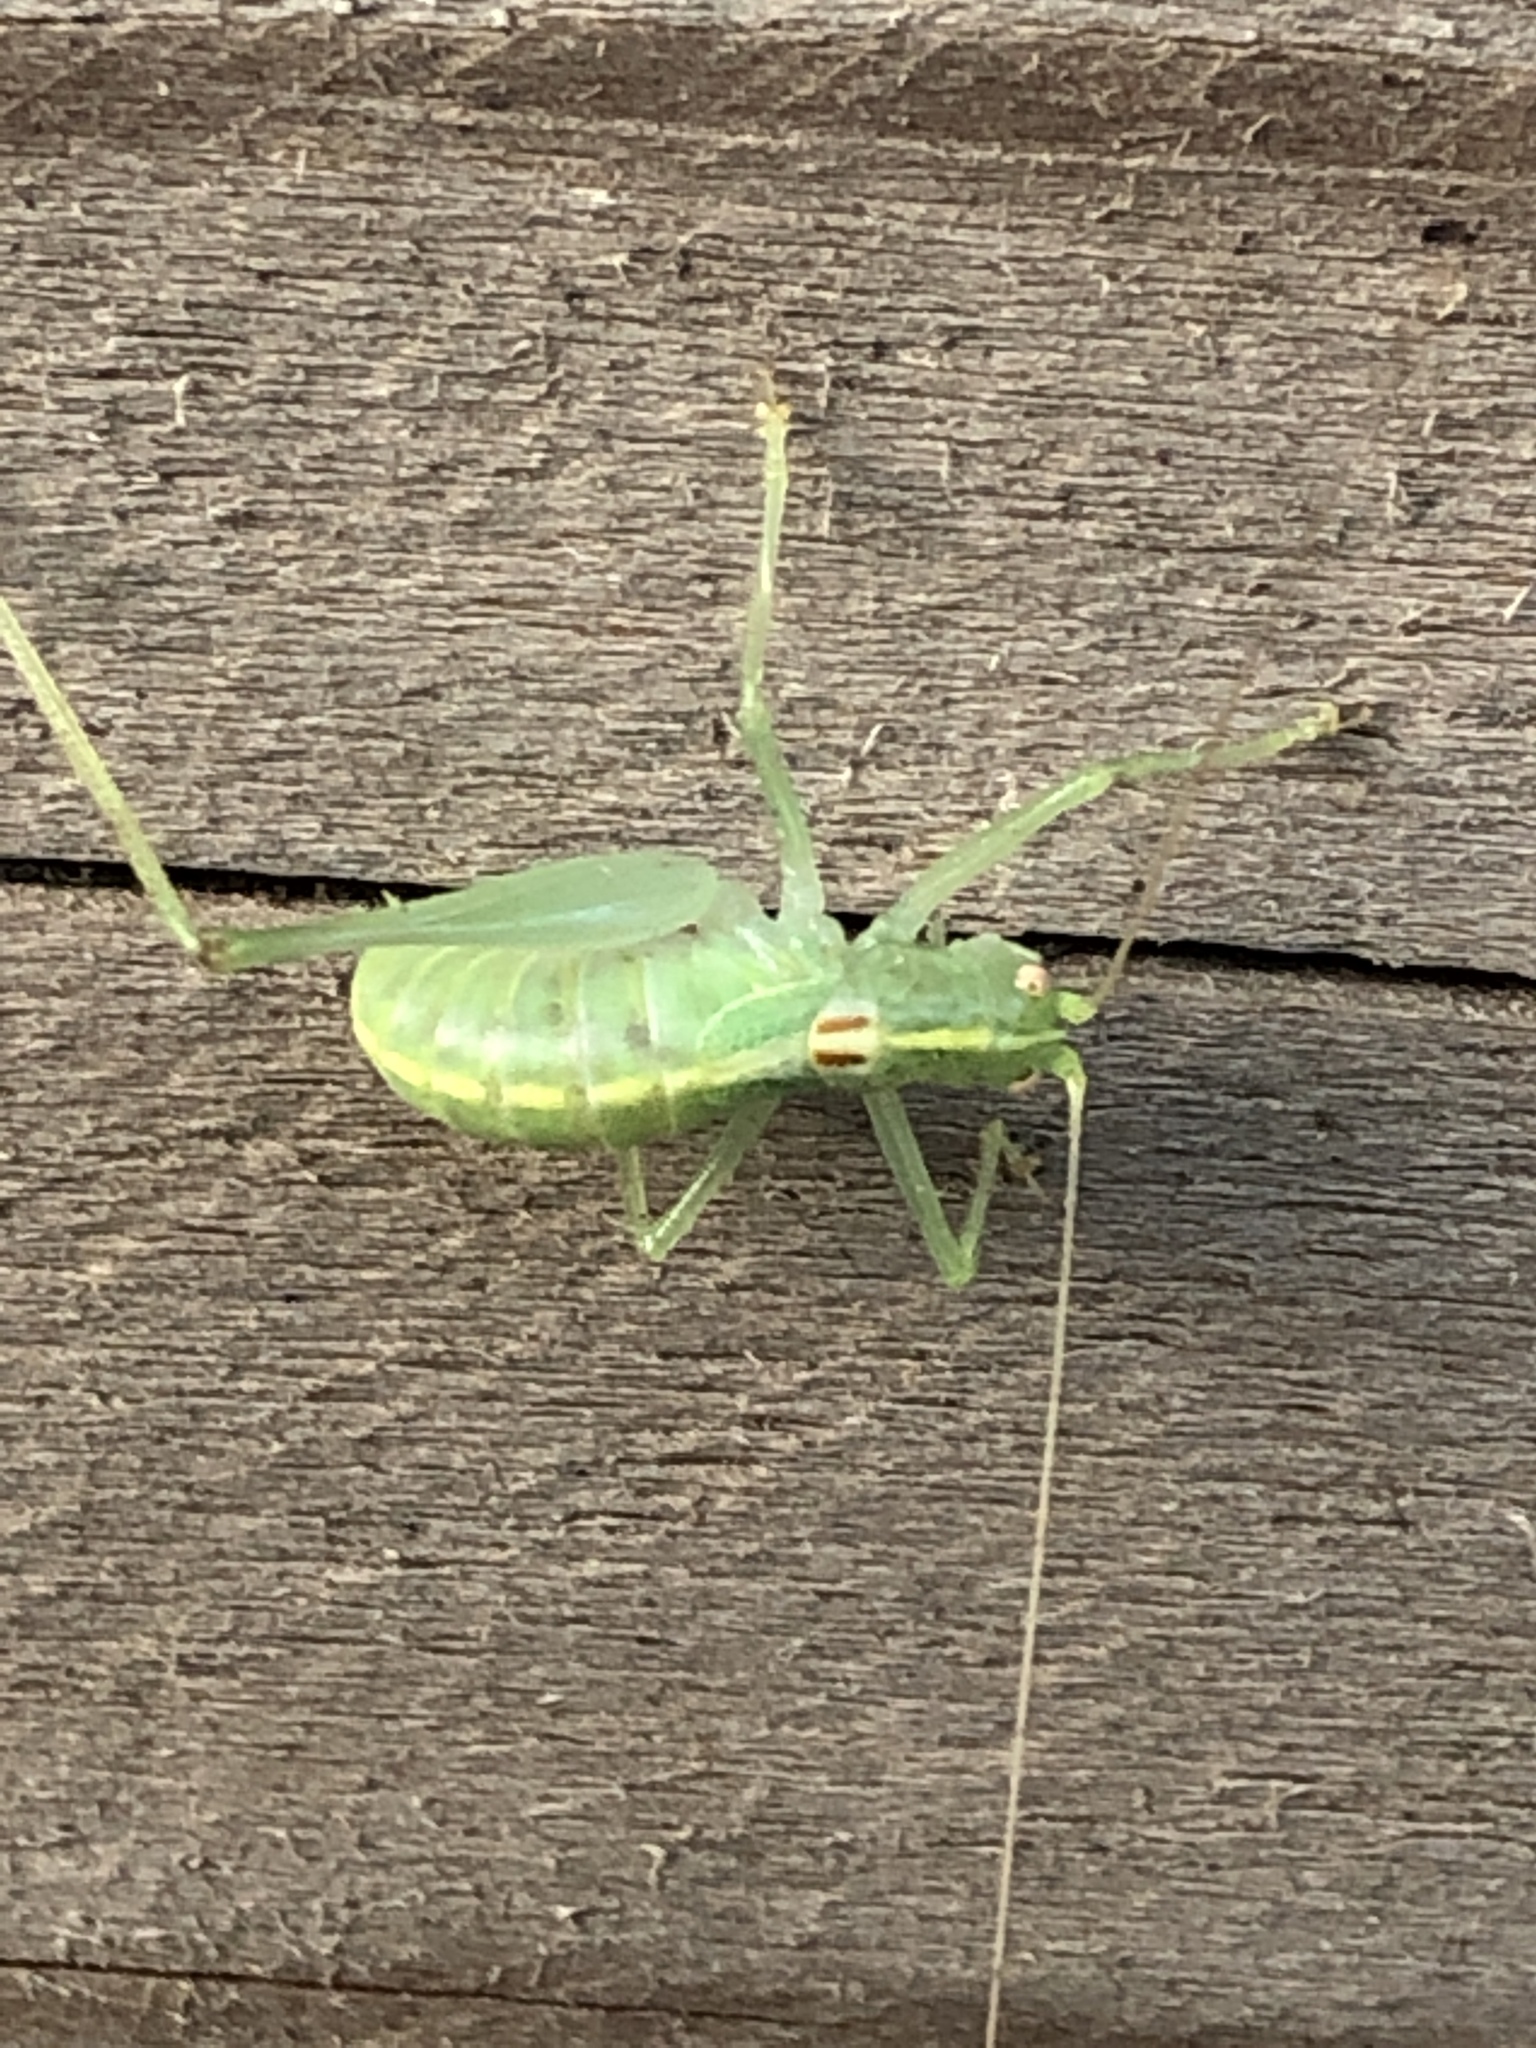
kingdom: Animalia
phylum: Arthropoda
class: Insecta
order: Orthoptera
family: Tettigoniidae
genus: Meconema
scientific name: Meconema meridionale
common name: Southern oak bush-cricket
